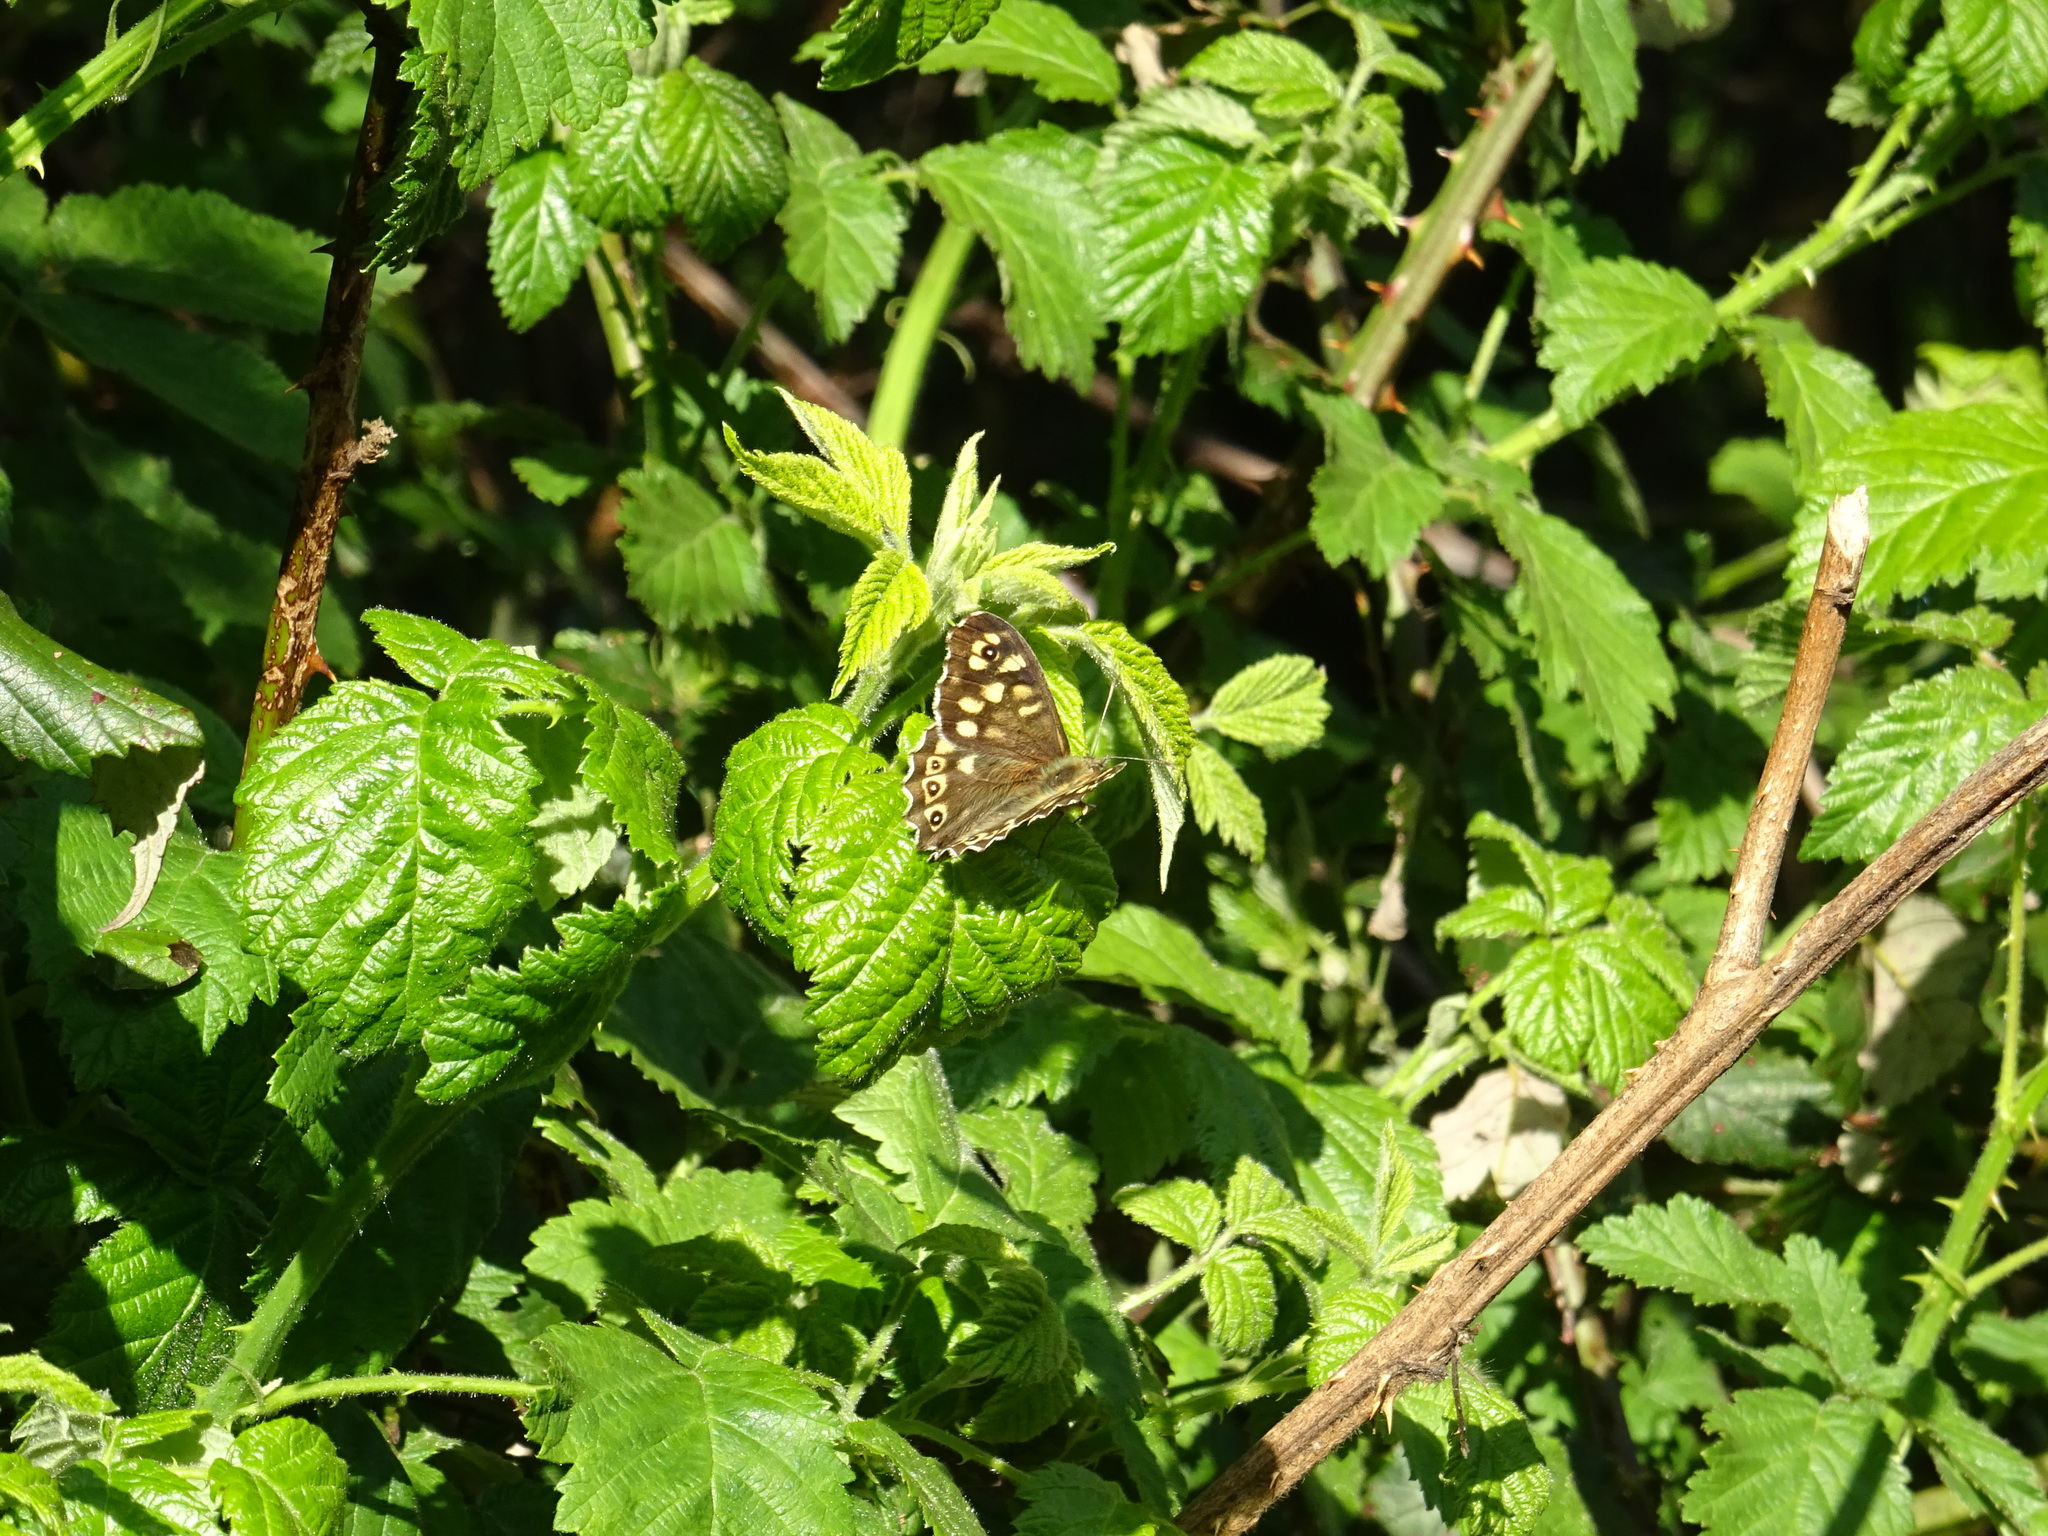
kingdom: Animalia
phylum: Arthropoda
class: Insecta
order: Lepidoptera
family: Nymphalidae
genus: Pararge
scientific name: Pararge aegeria
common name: Speckled wood
